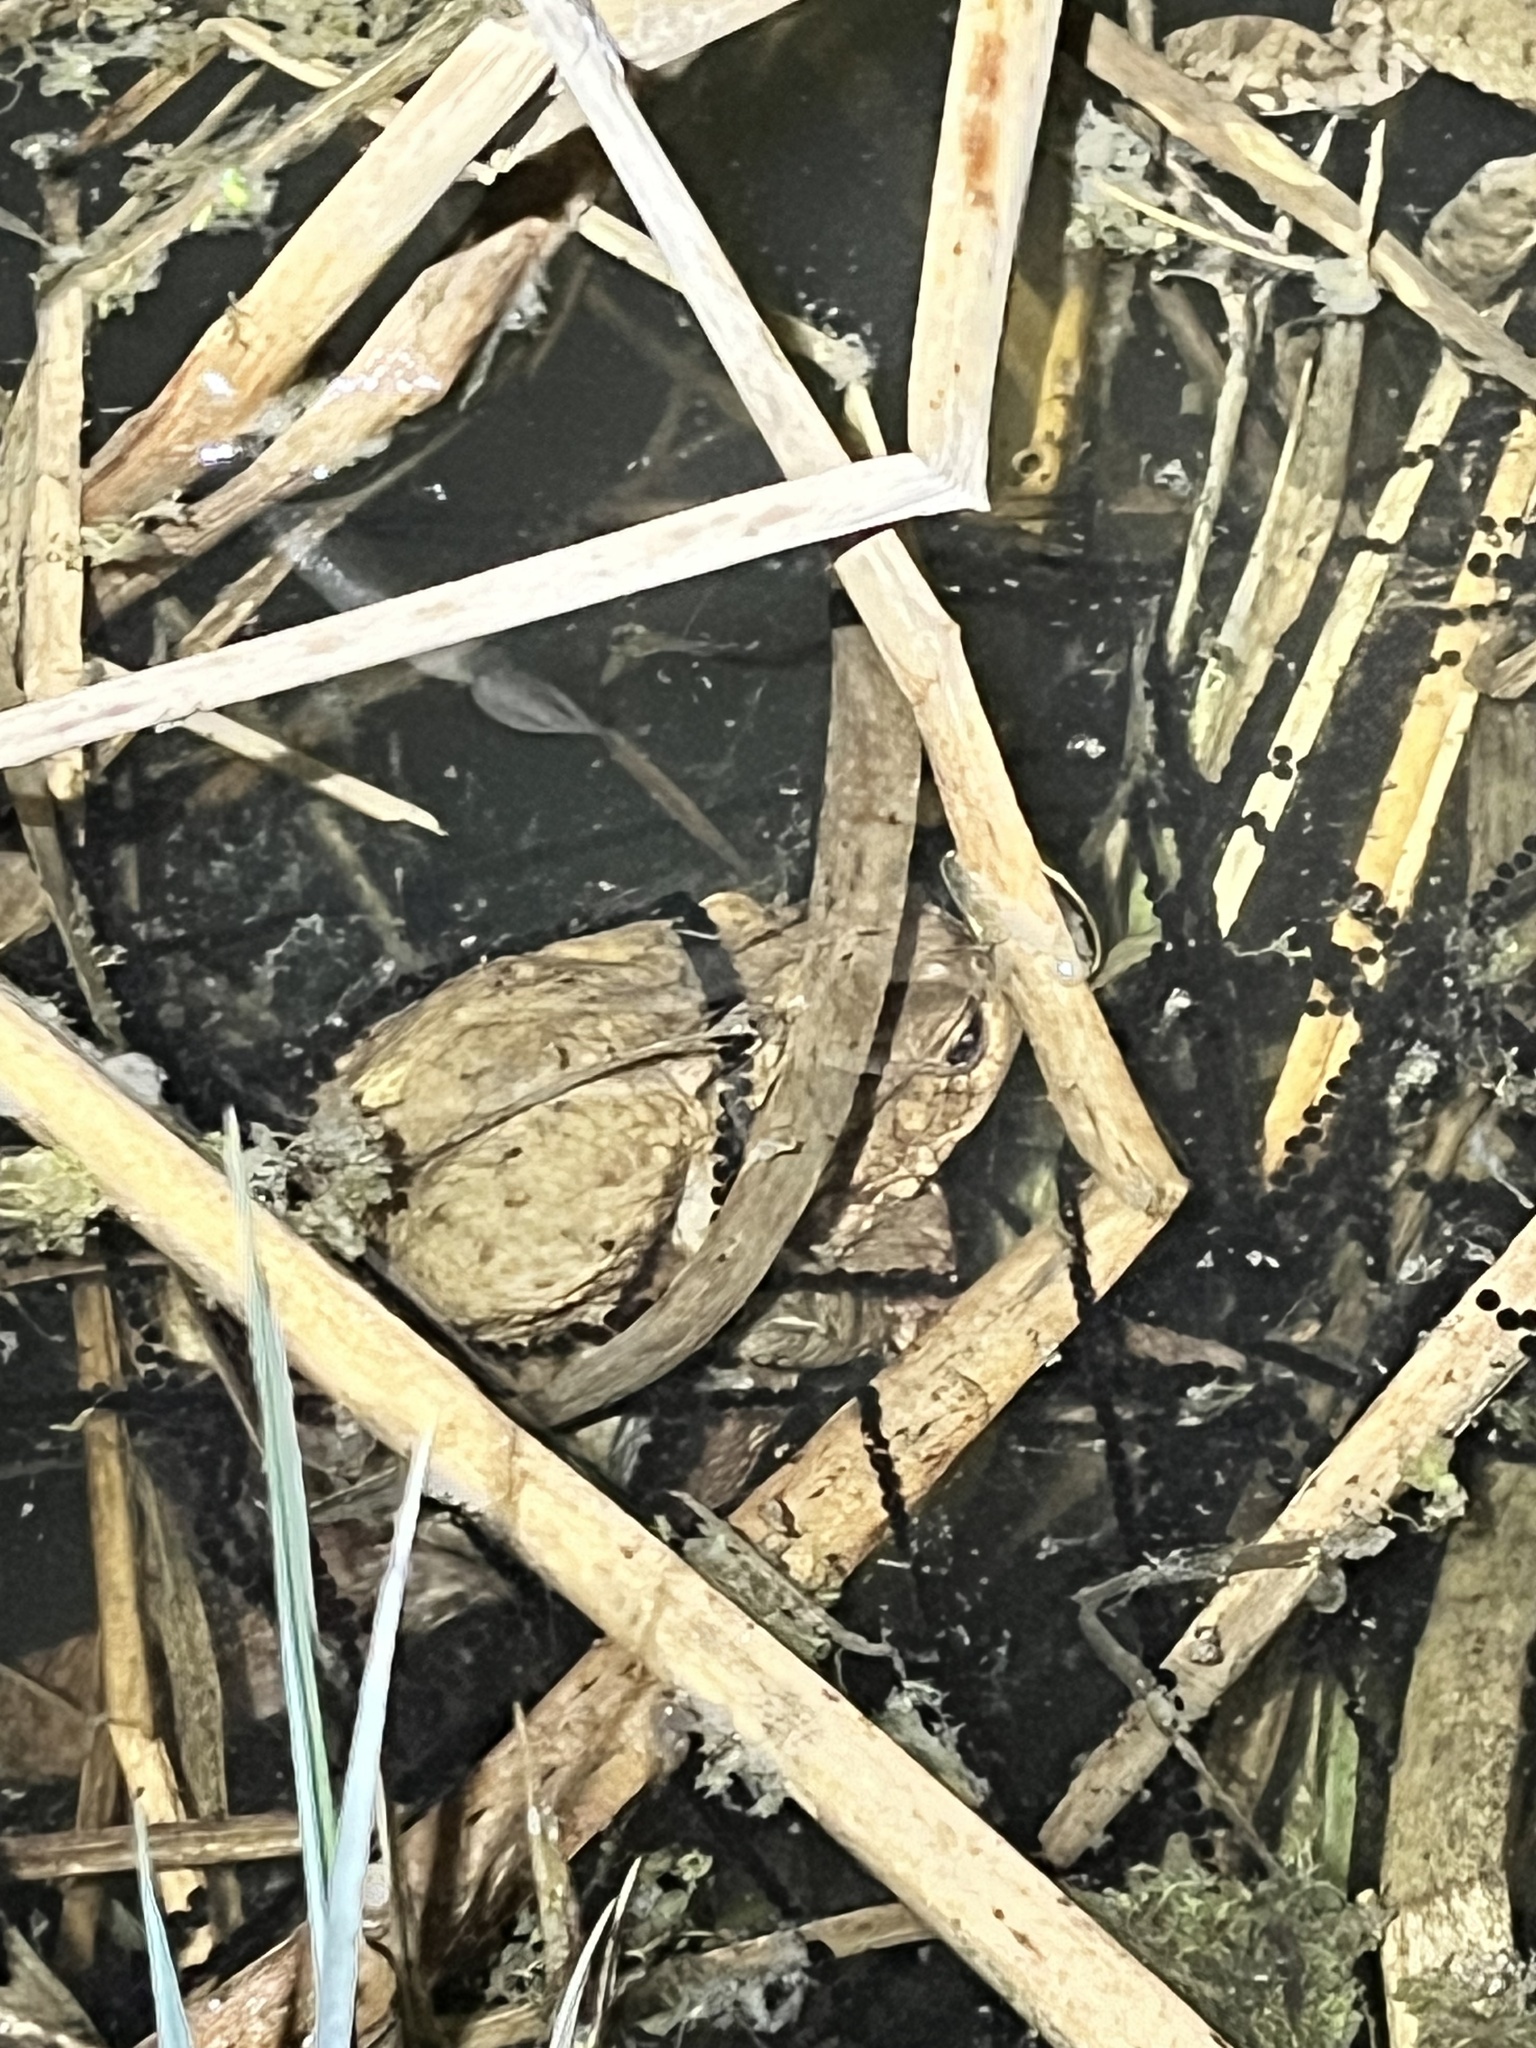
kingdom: Animalia
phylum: Chordata
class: Amphibia
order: Anura
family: Bufonidae
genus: Bufo
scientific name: Bufo bufo
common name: Common toad
